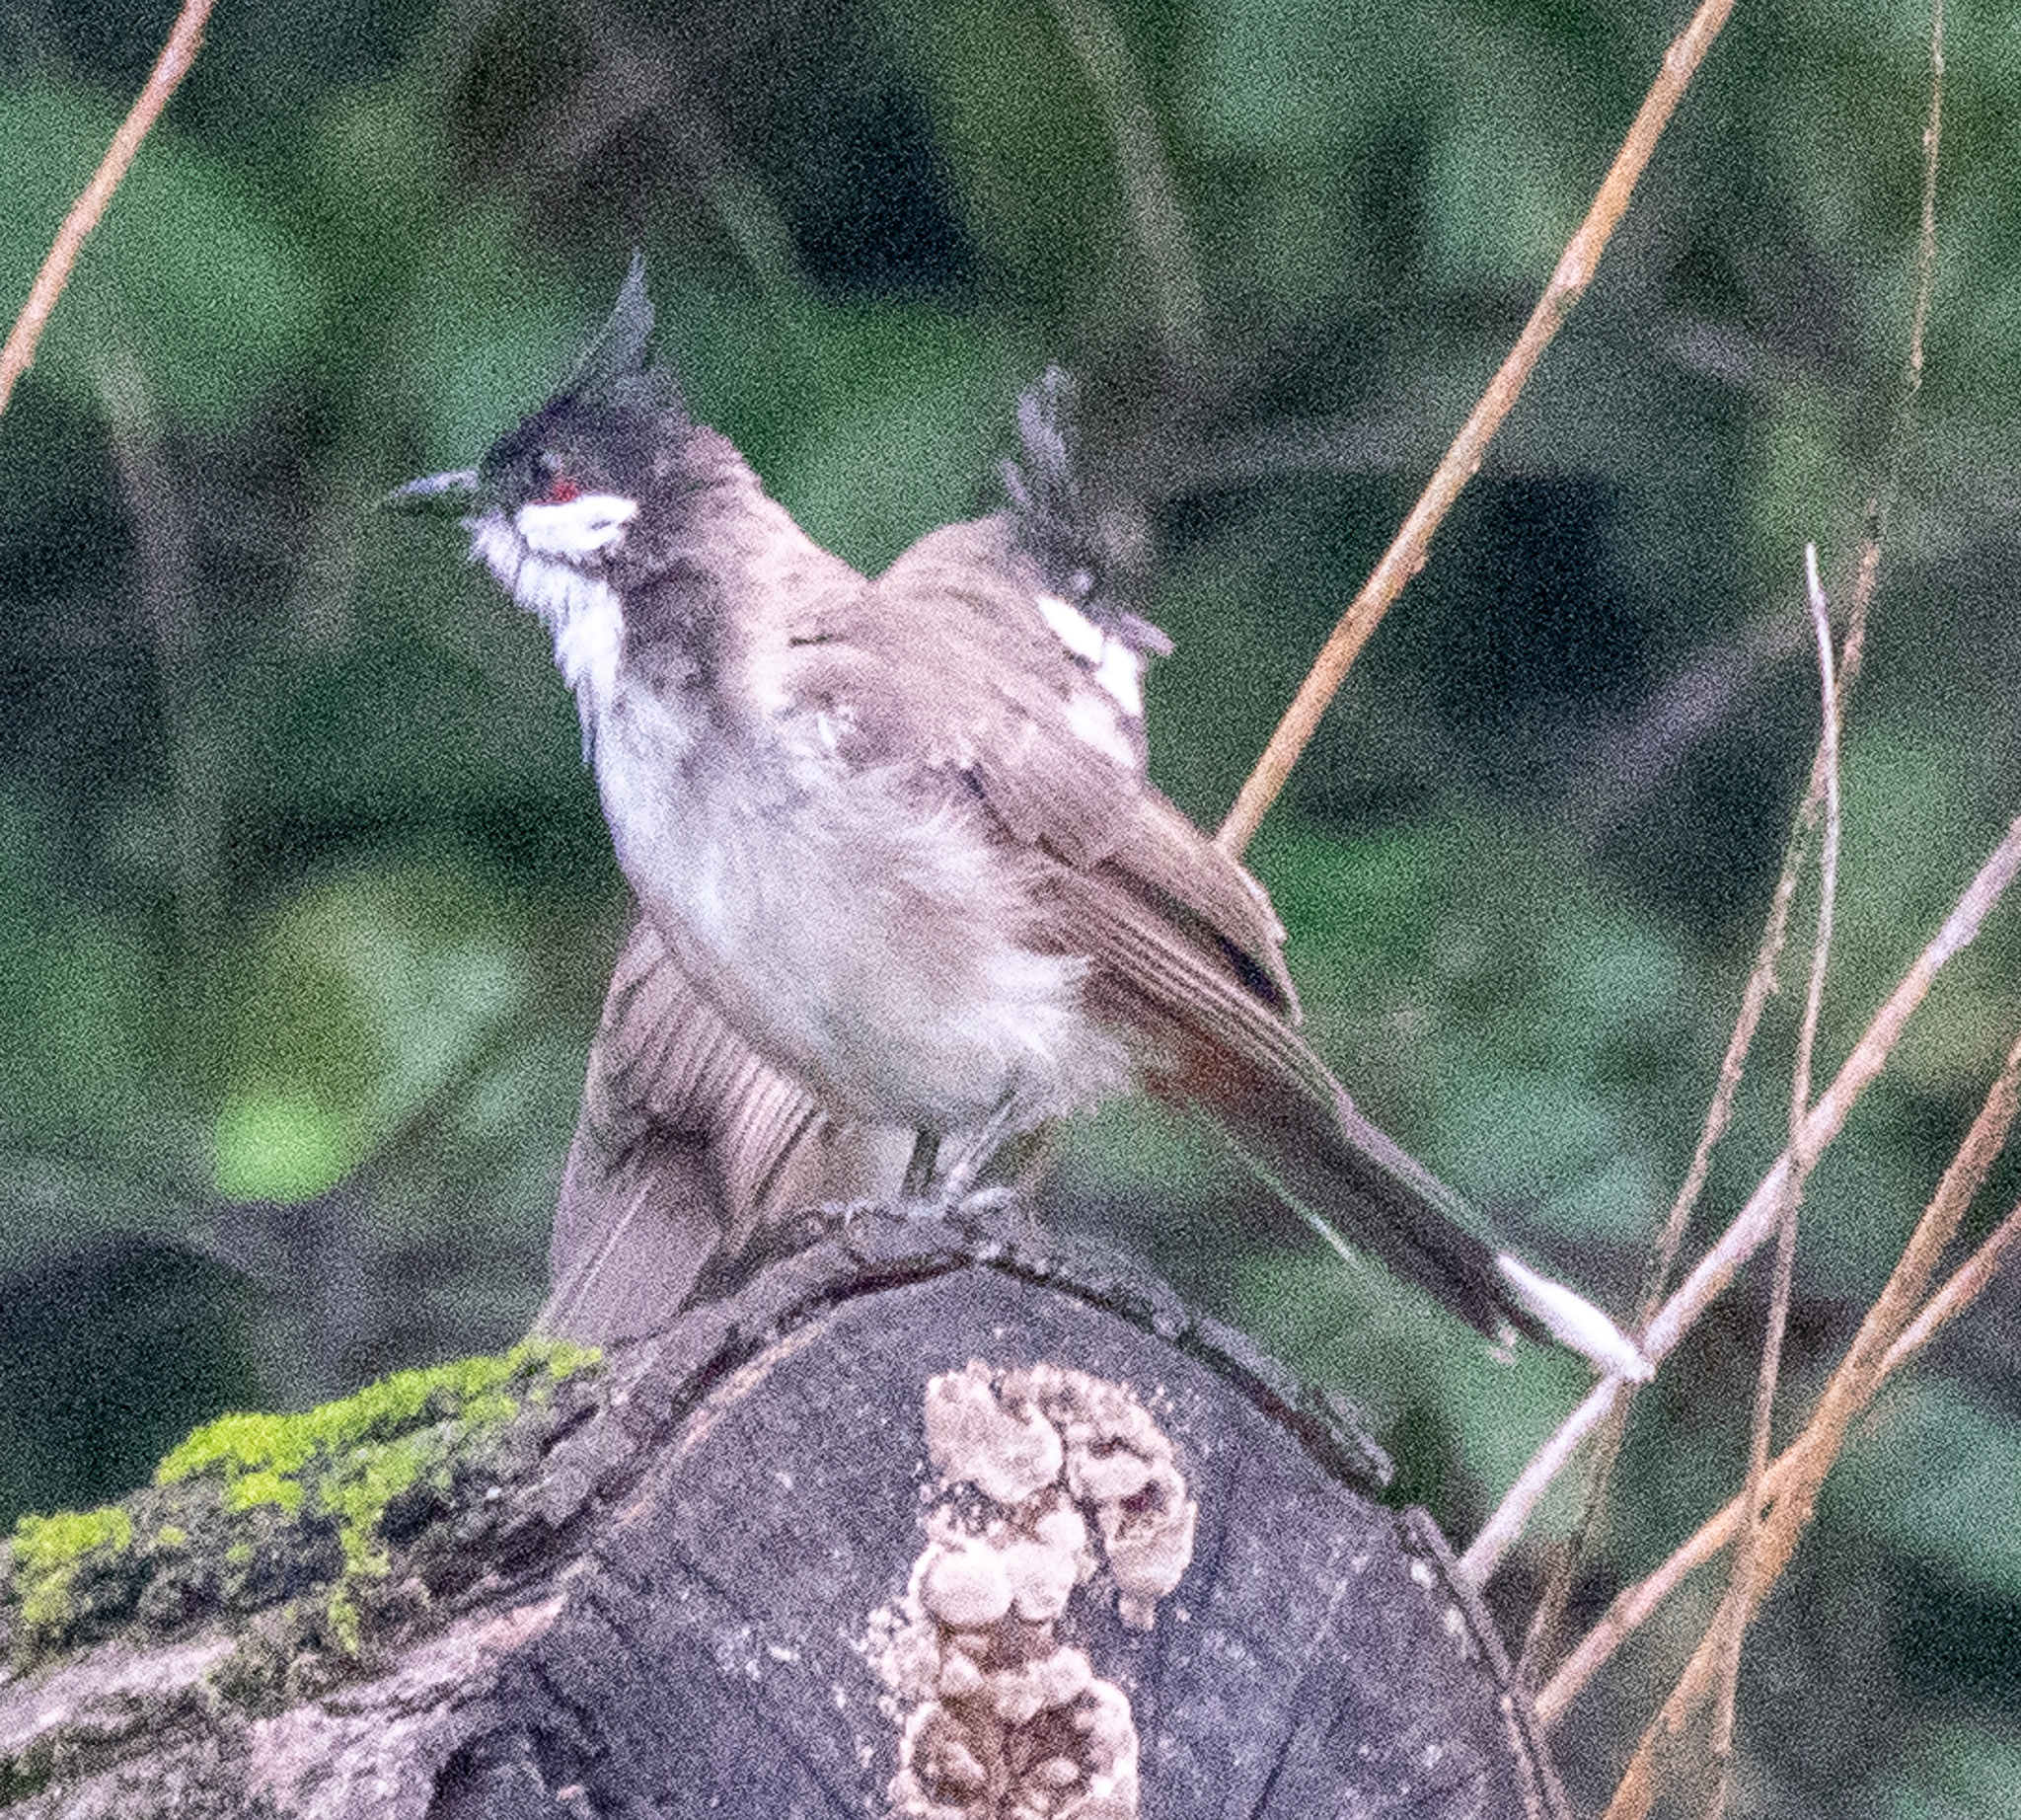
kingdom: Animalia
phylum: Chordata
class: Aves
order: Passeriformes
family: Pycnonotidae
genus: Pycnonotus
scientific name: Pycnonotus jocosus
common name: Red-whiskered bulbul
